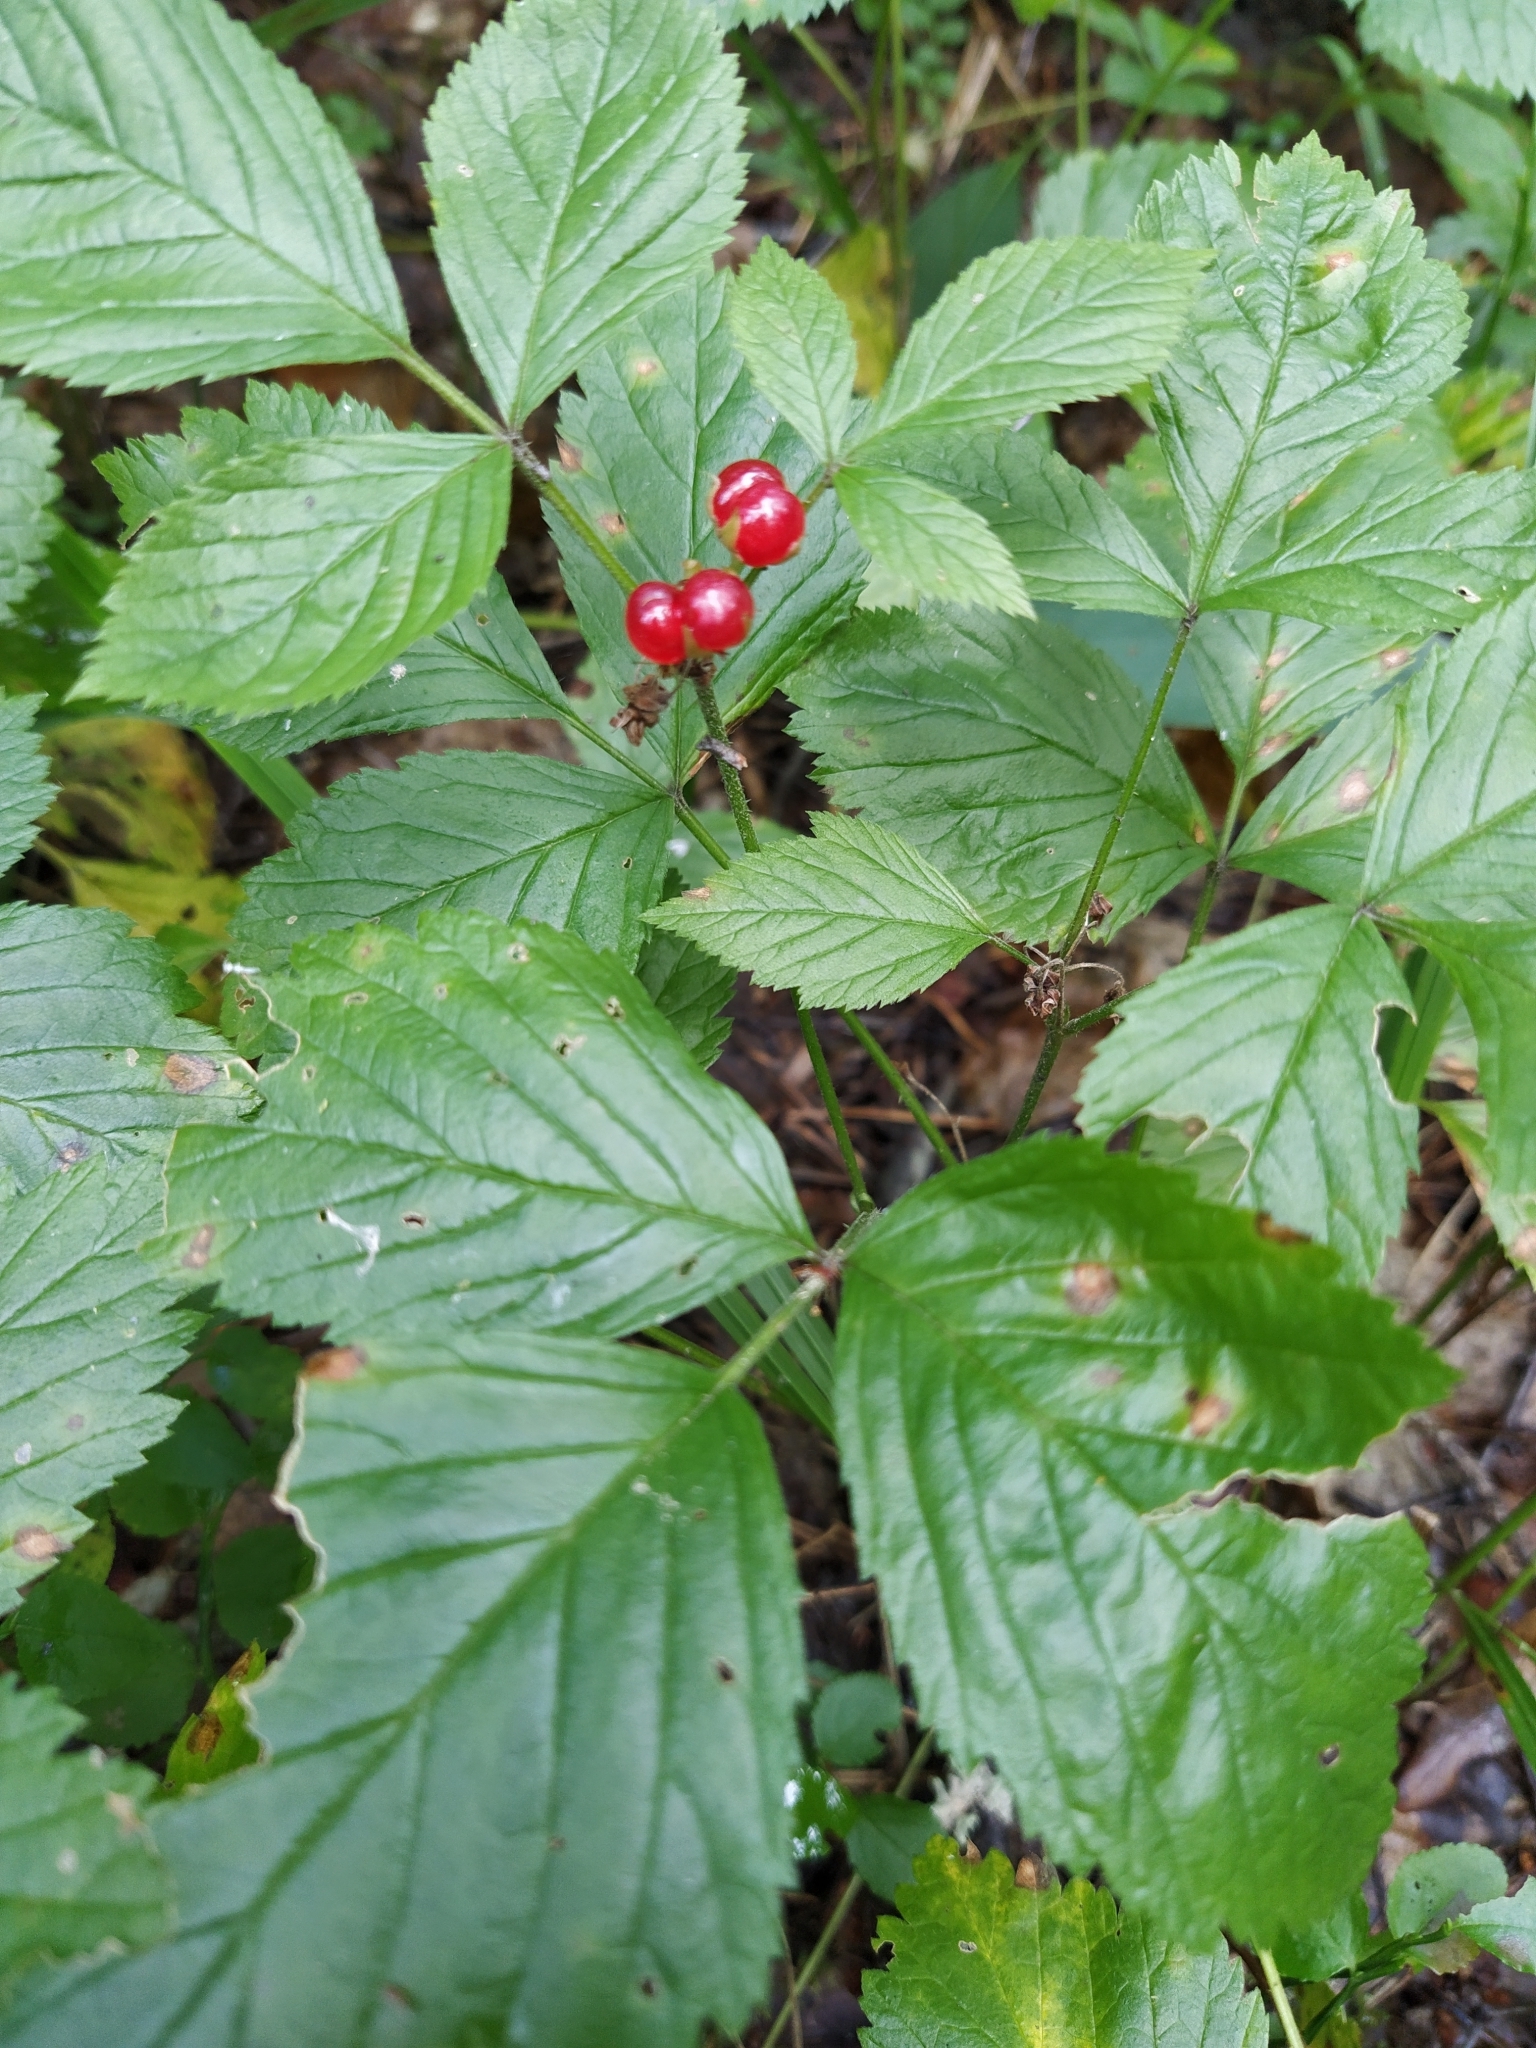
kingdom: Plantae
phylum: Tracheophyta
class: Magnoliopsida
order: Rosales
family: Rosaceae
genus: Rubus
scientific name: Rubus saxatilis
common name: Stone bramble
